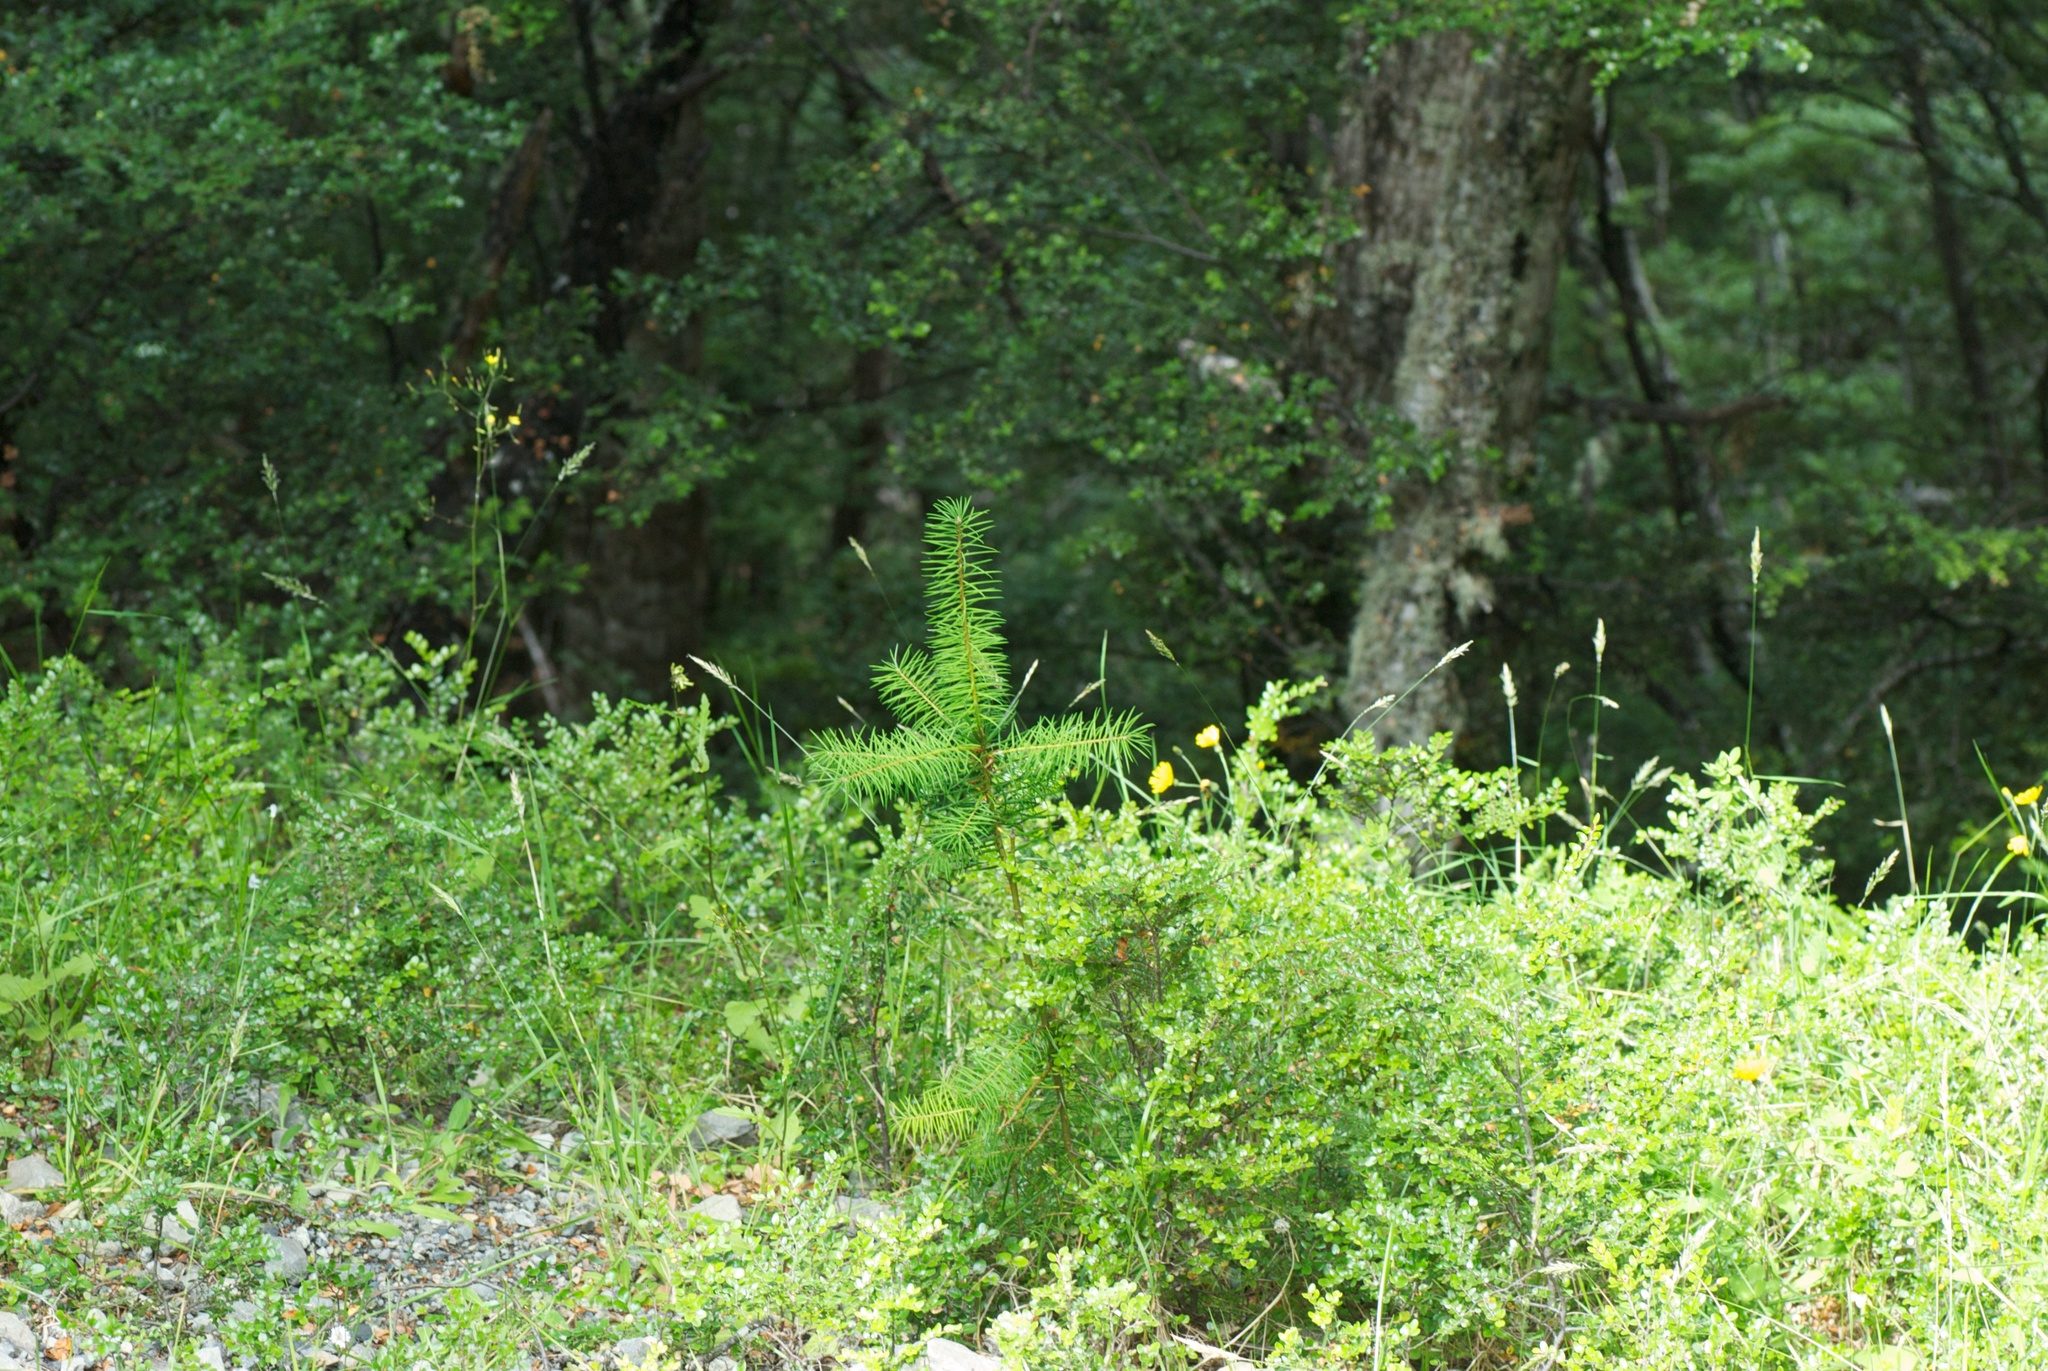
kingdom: Plantae
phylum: Tracheophyta
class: Pinopsida
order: Pinales
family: Pinaceae
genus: Pseudotsuga
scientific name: Pseudotsuga menziesii
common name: Douglas fir
